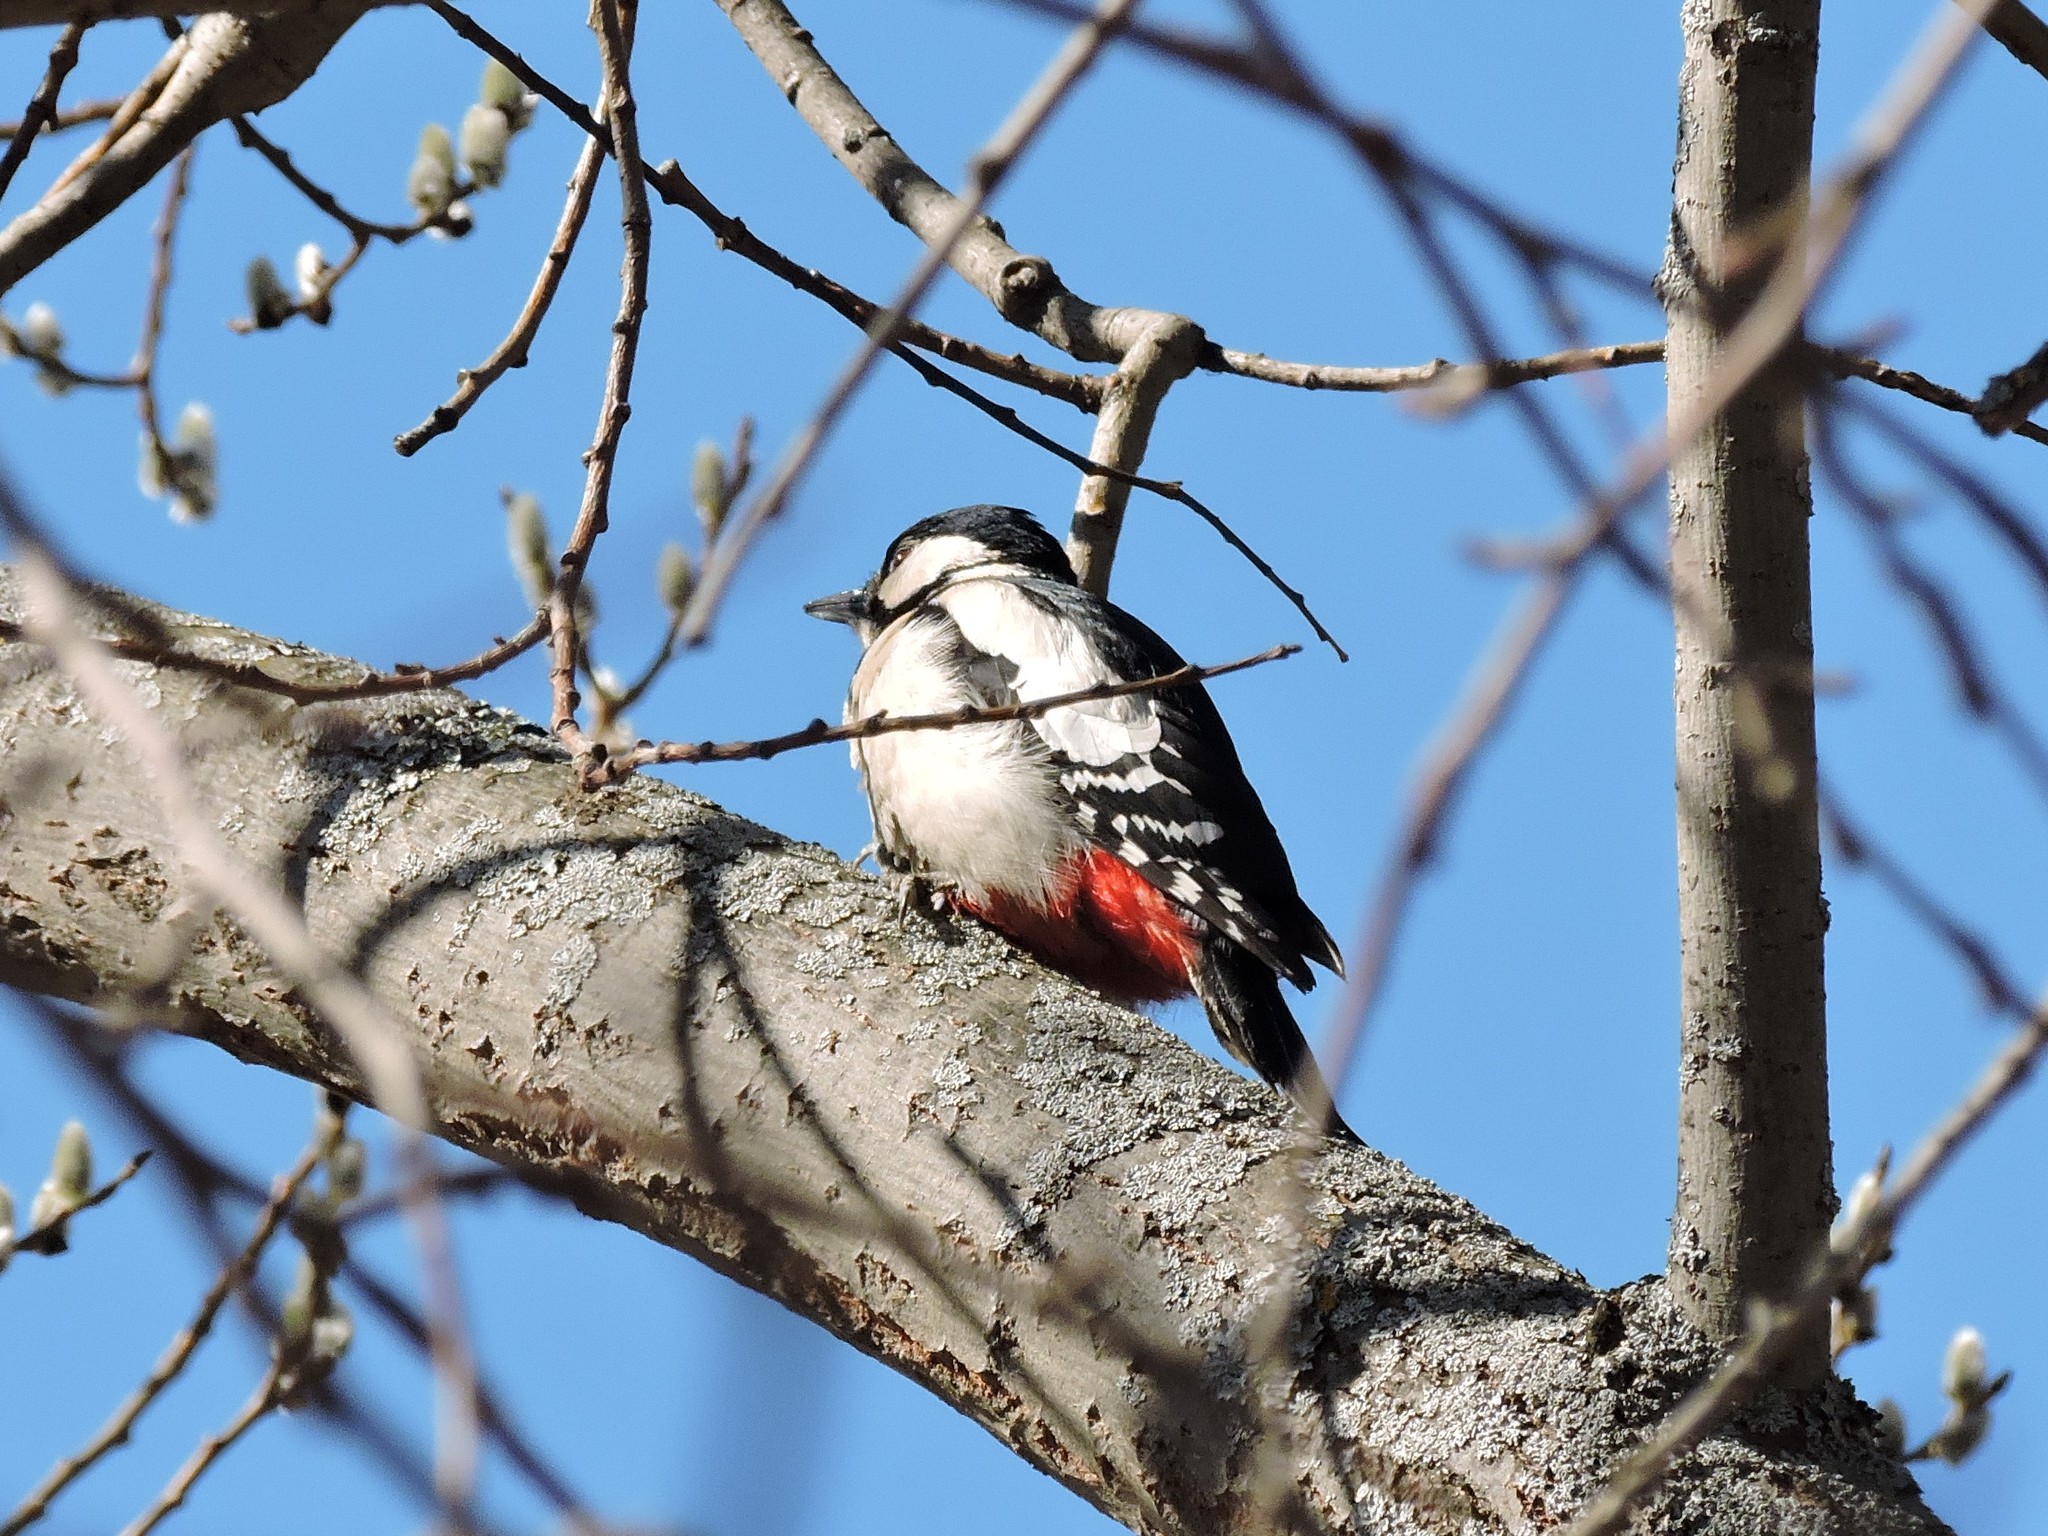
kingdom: Animalia
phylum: Chordata
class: Aves
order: Piciformes
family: Picidae
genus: Dendrocopos
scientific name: Dendrocopos major
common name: Great spotted woodpecker
